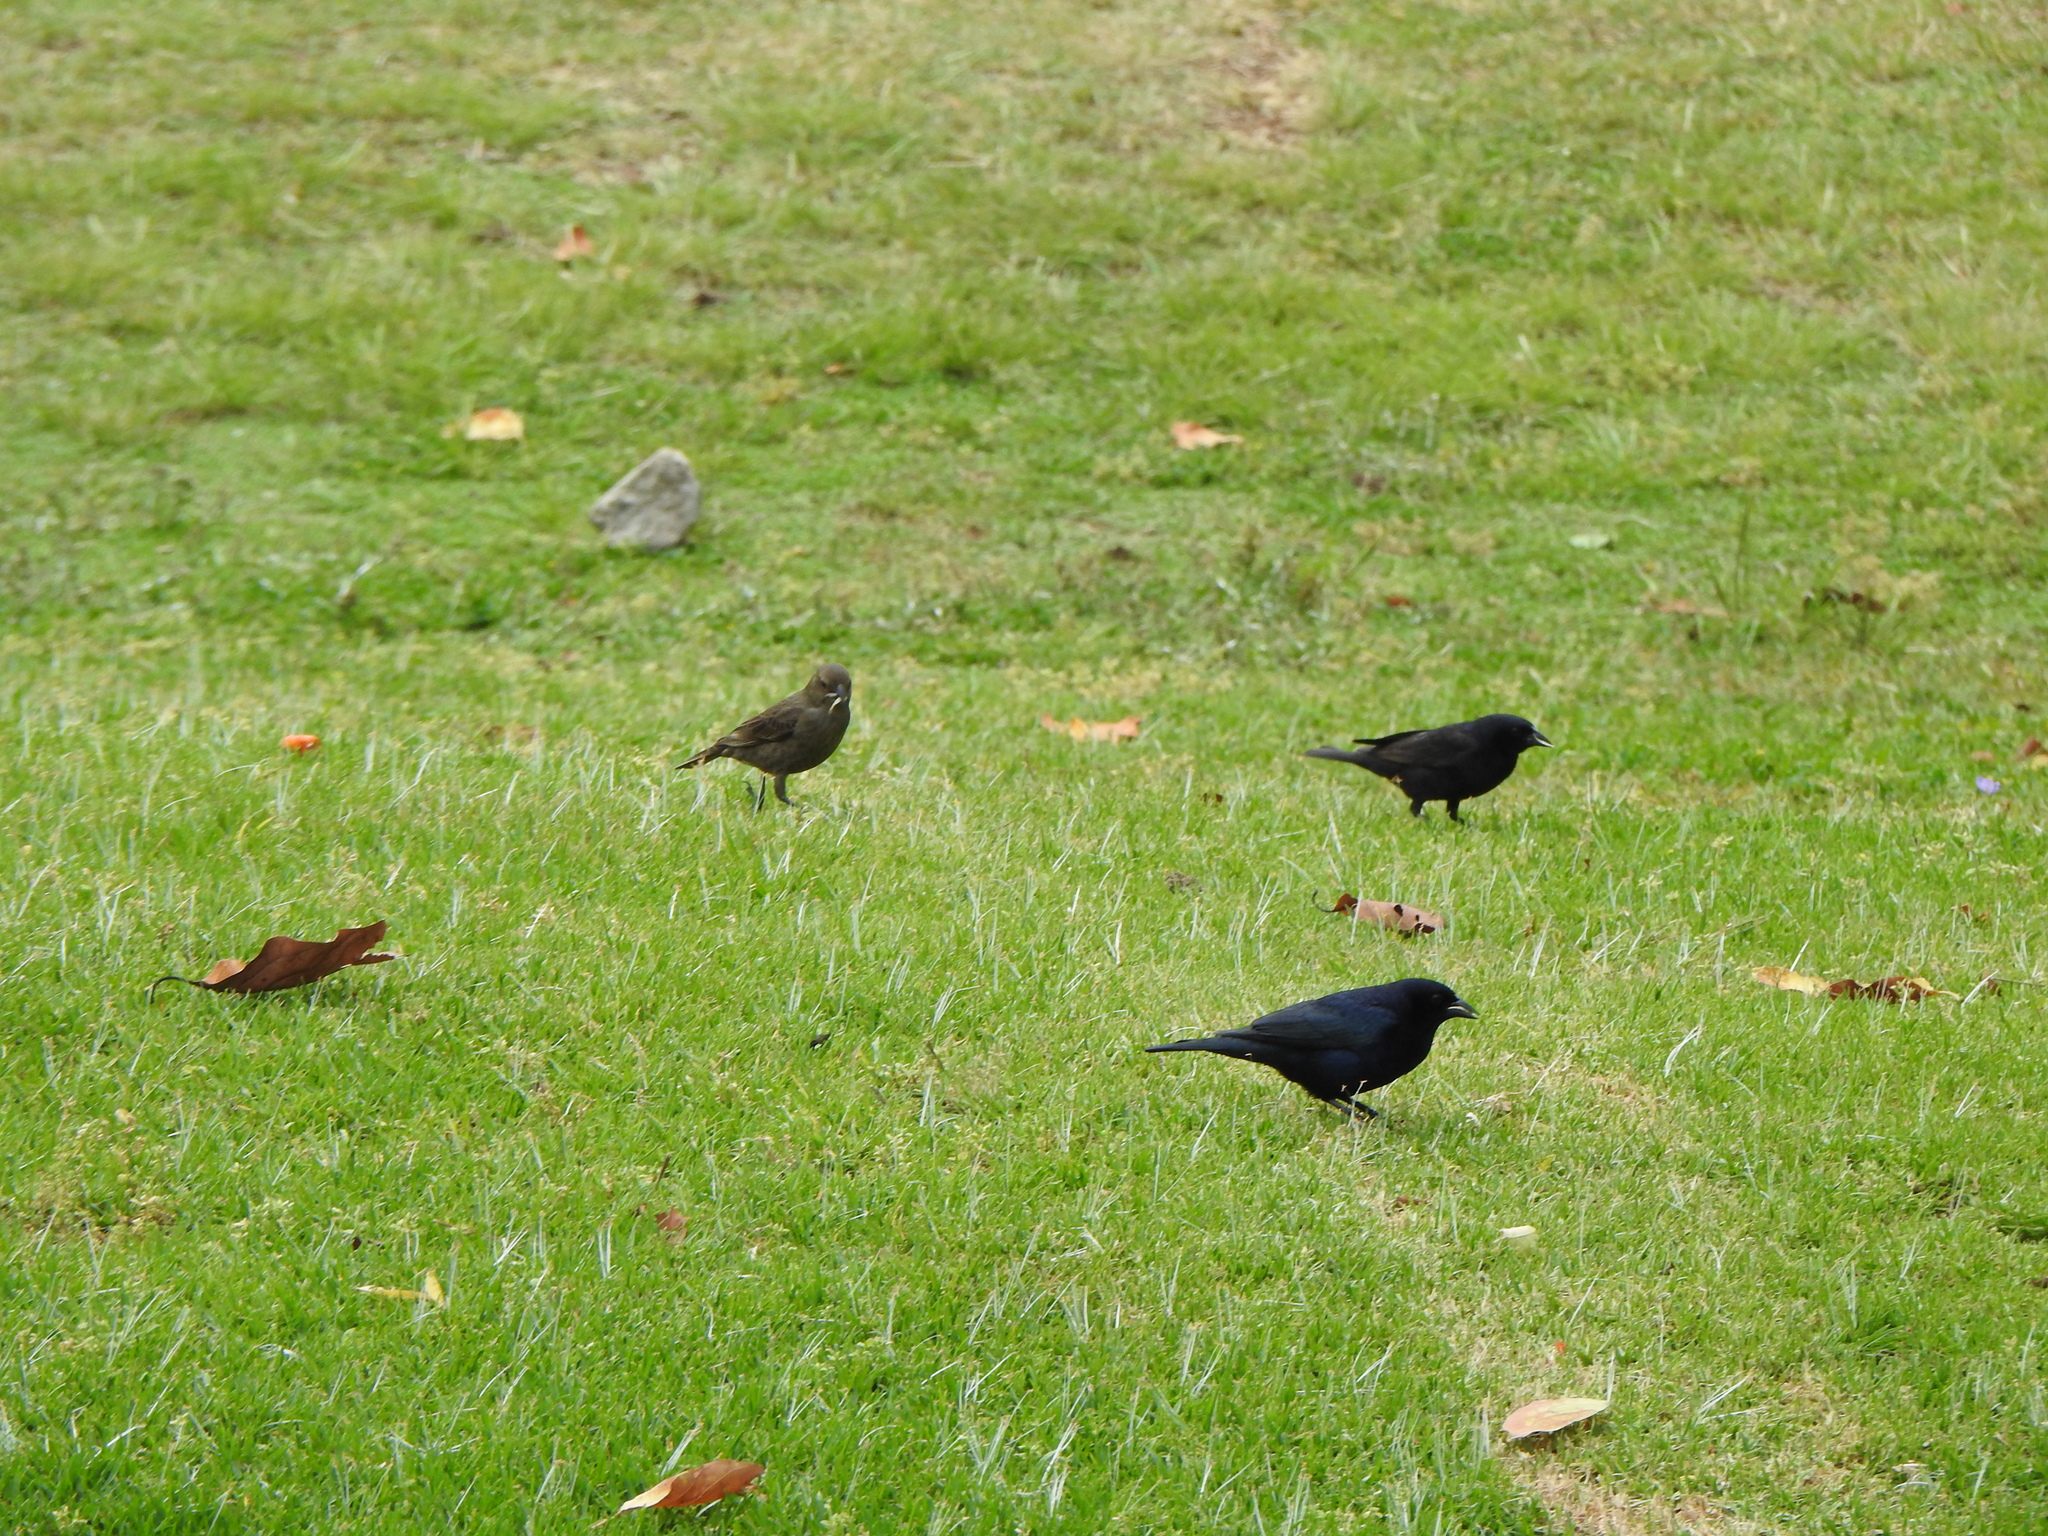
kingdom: Animalia
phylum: Chordata
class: Aves
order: Passeriformes
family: Icteridae
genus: Molothrus
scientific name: Molothrus bonariensis
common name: Shiny cowbird
